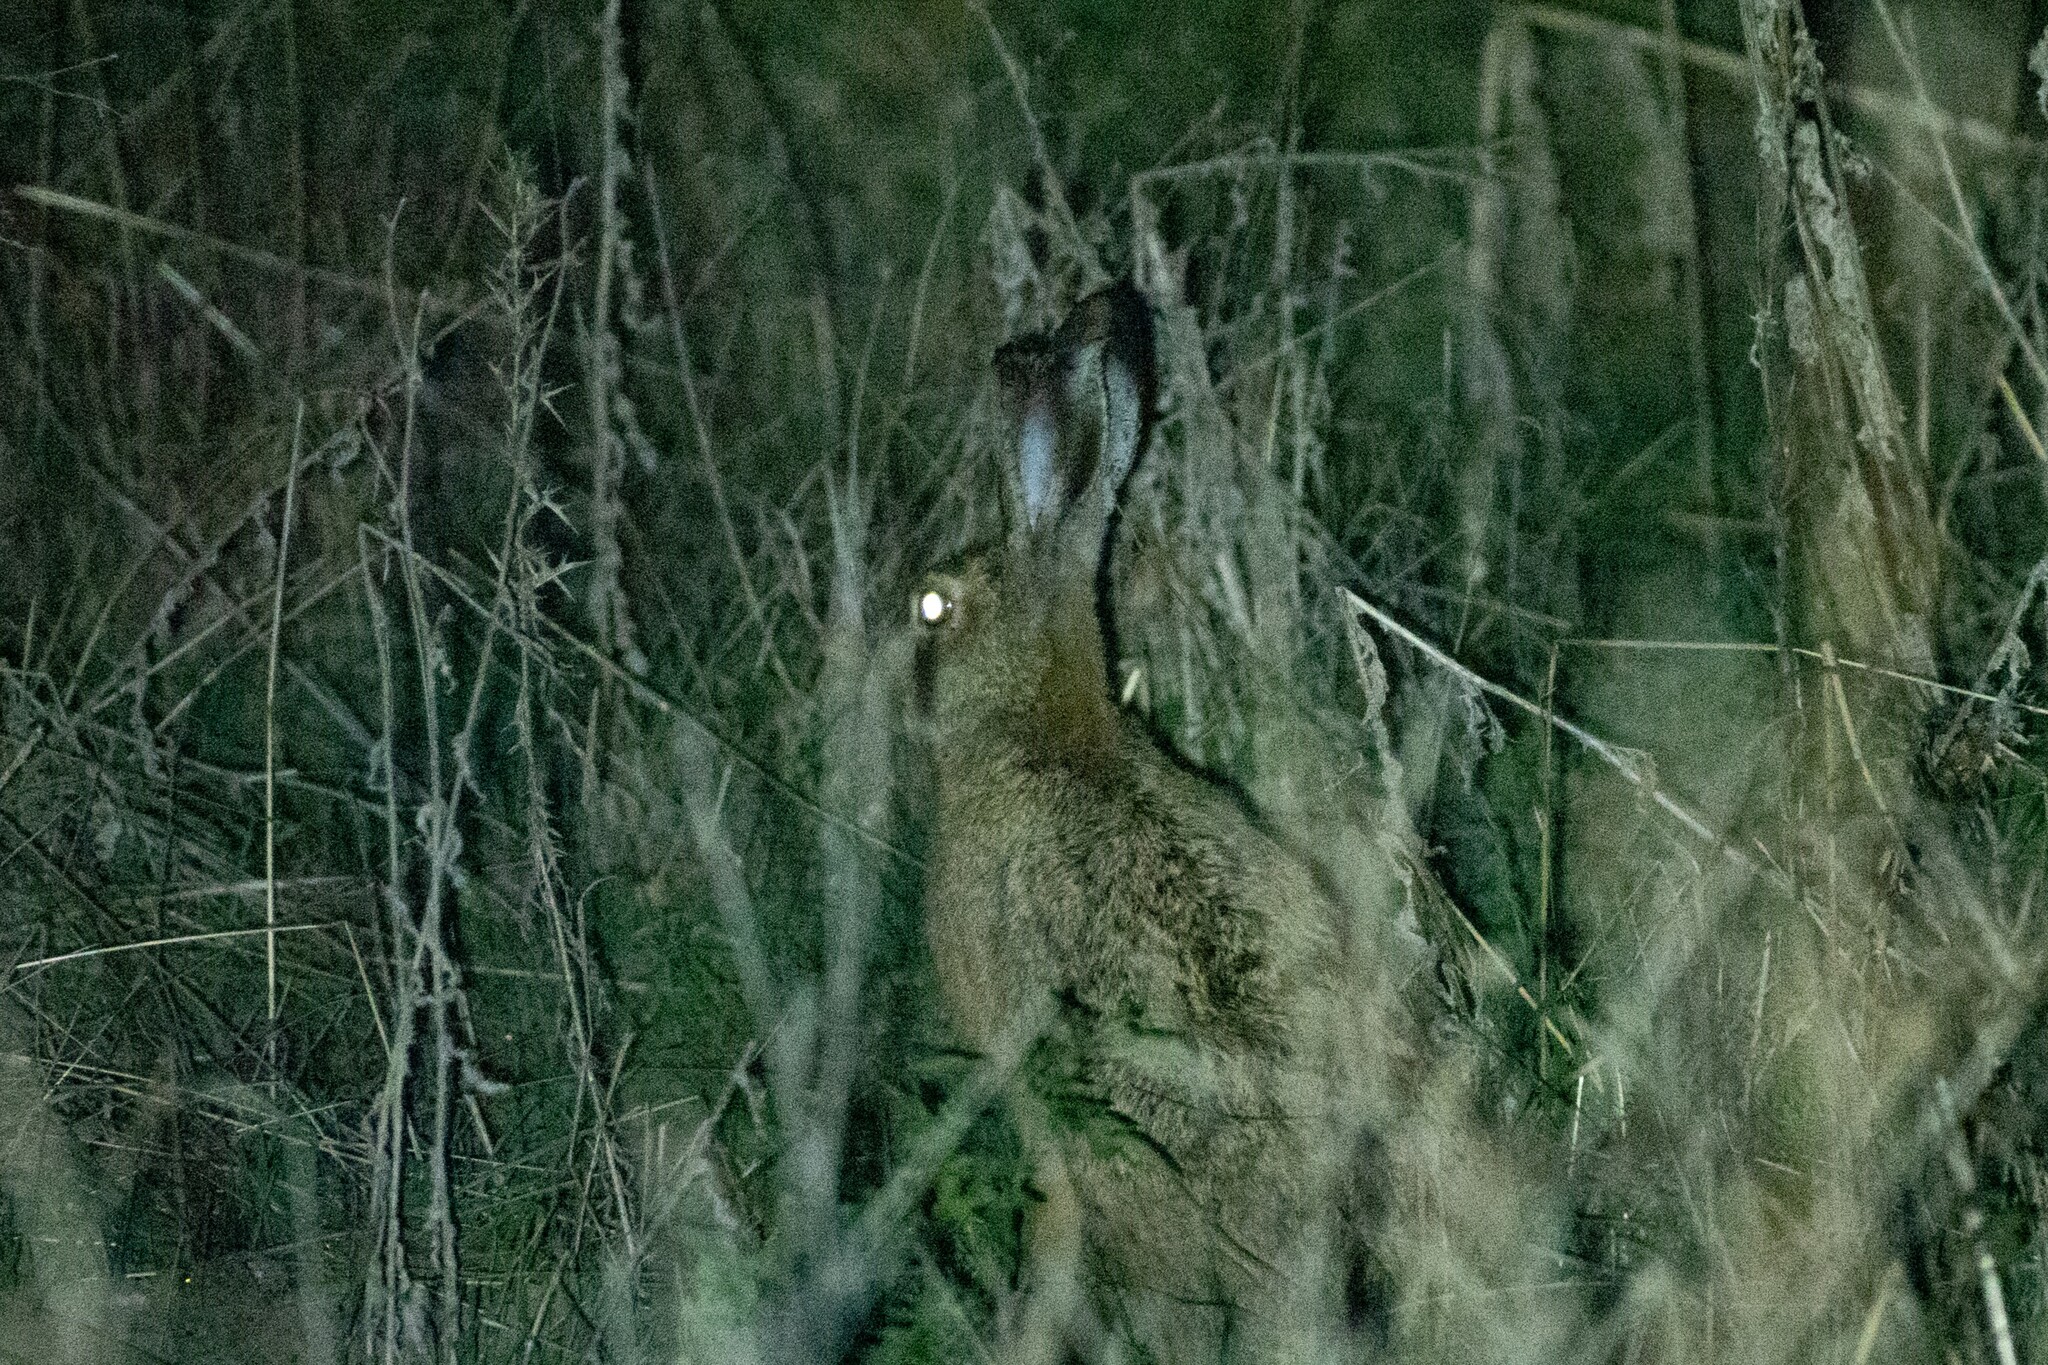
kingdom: Animalia
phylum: Chordata
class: Mammalia
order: Lagomorpha
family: Leporidae
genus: Lepus
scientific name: Lepus europaeus
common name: European hare
